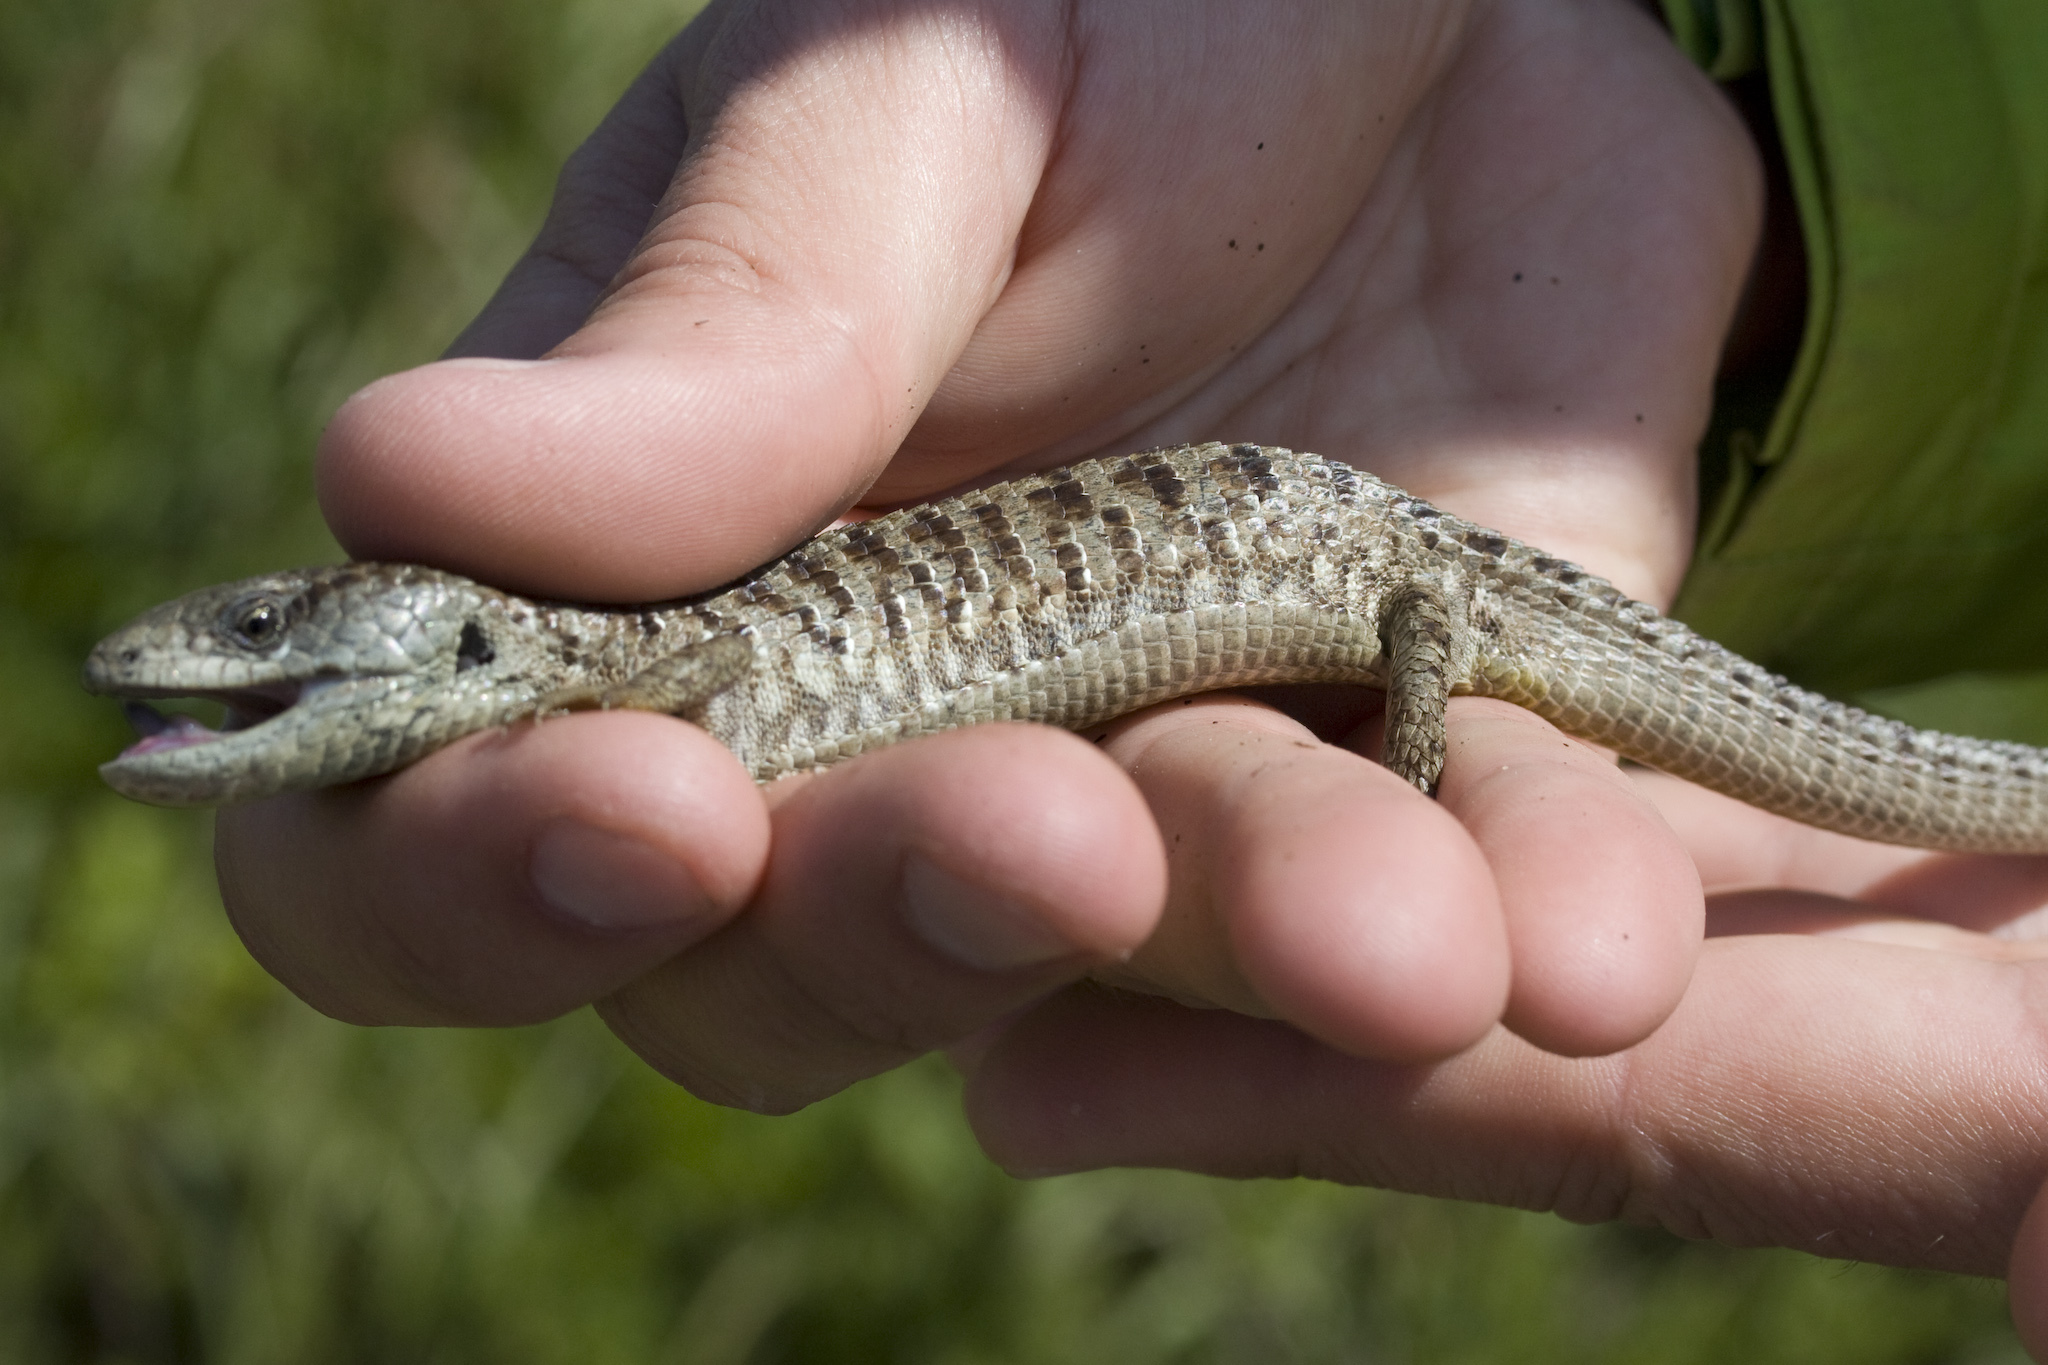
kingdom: Animalia
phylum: Chordata
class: Squamata
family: Anguidae
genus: Elgaria
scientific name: Elgaria coerulea
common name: Northern alligator lizard
